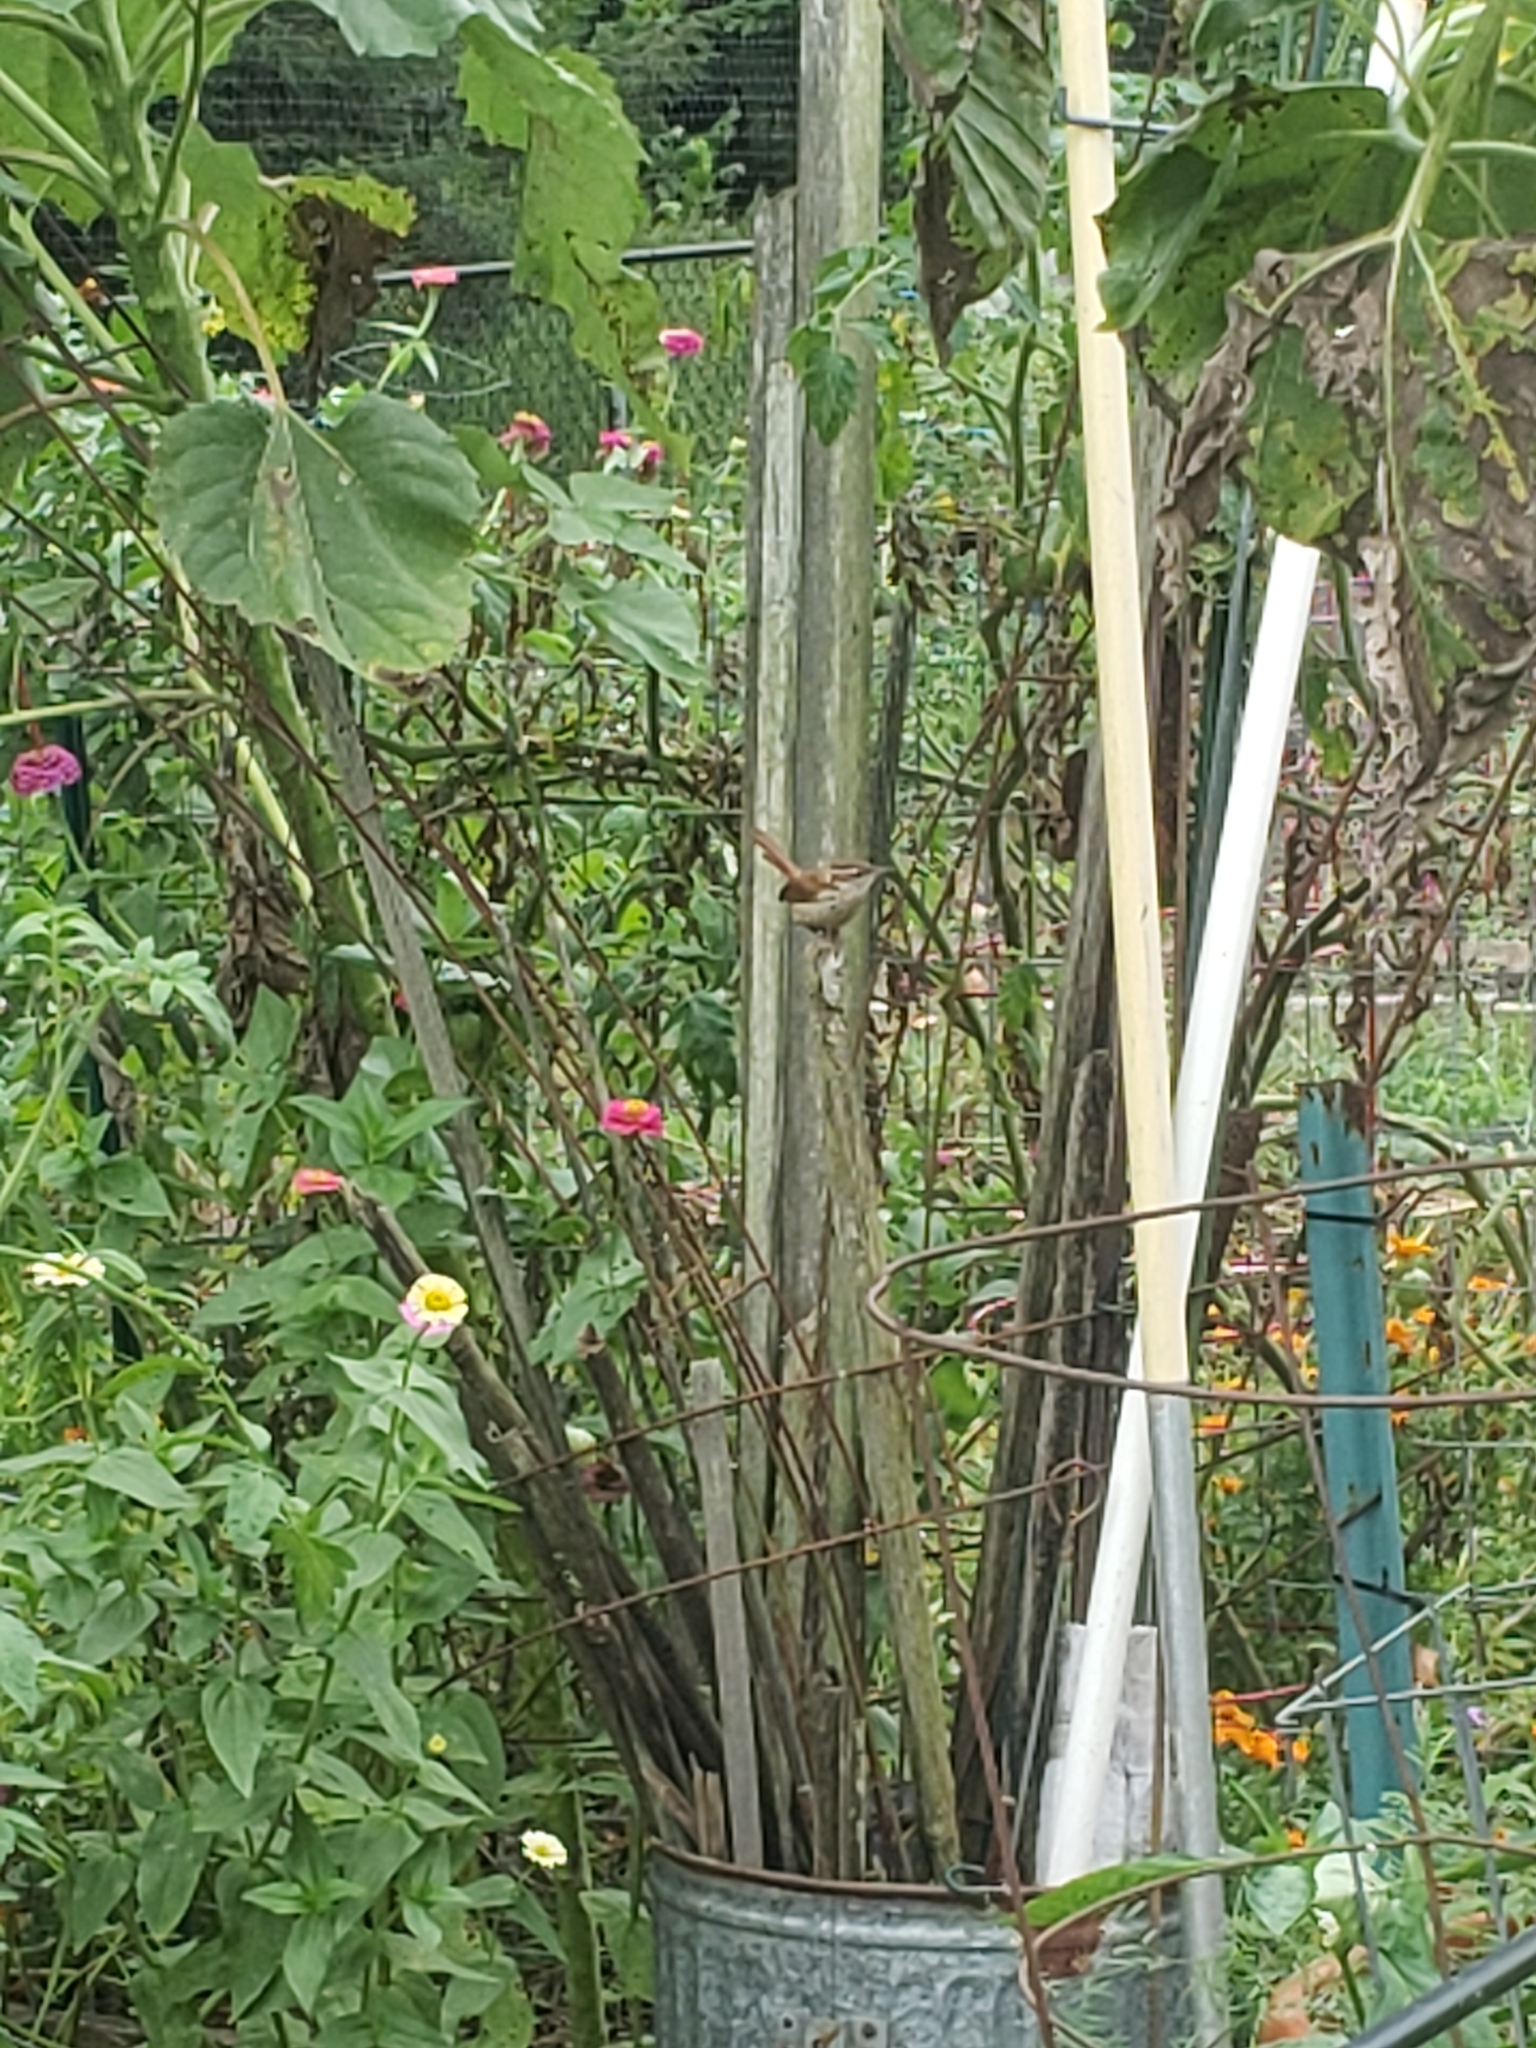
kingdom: Animalia
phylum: Chordata
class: Aves
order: Passeriformes
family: Troglodytidae
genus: Thryothorus
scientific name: Thryothorus ludovicianus
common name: Carolina wren
